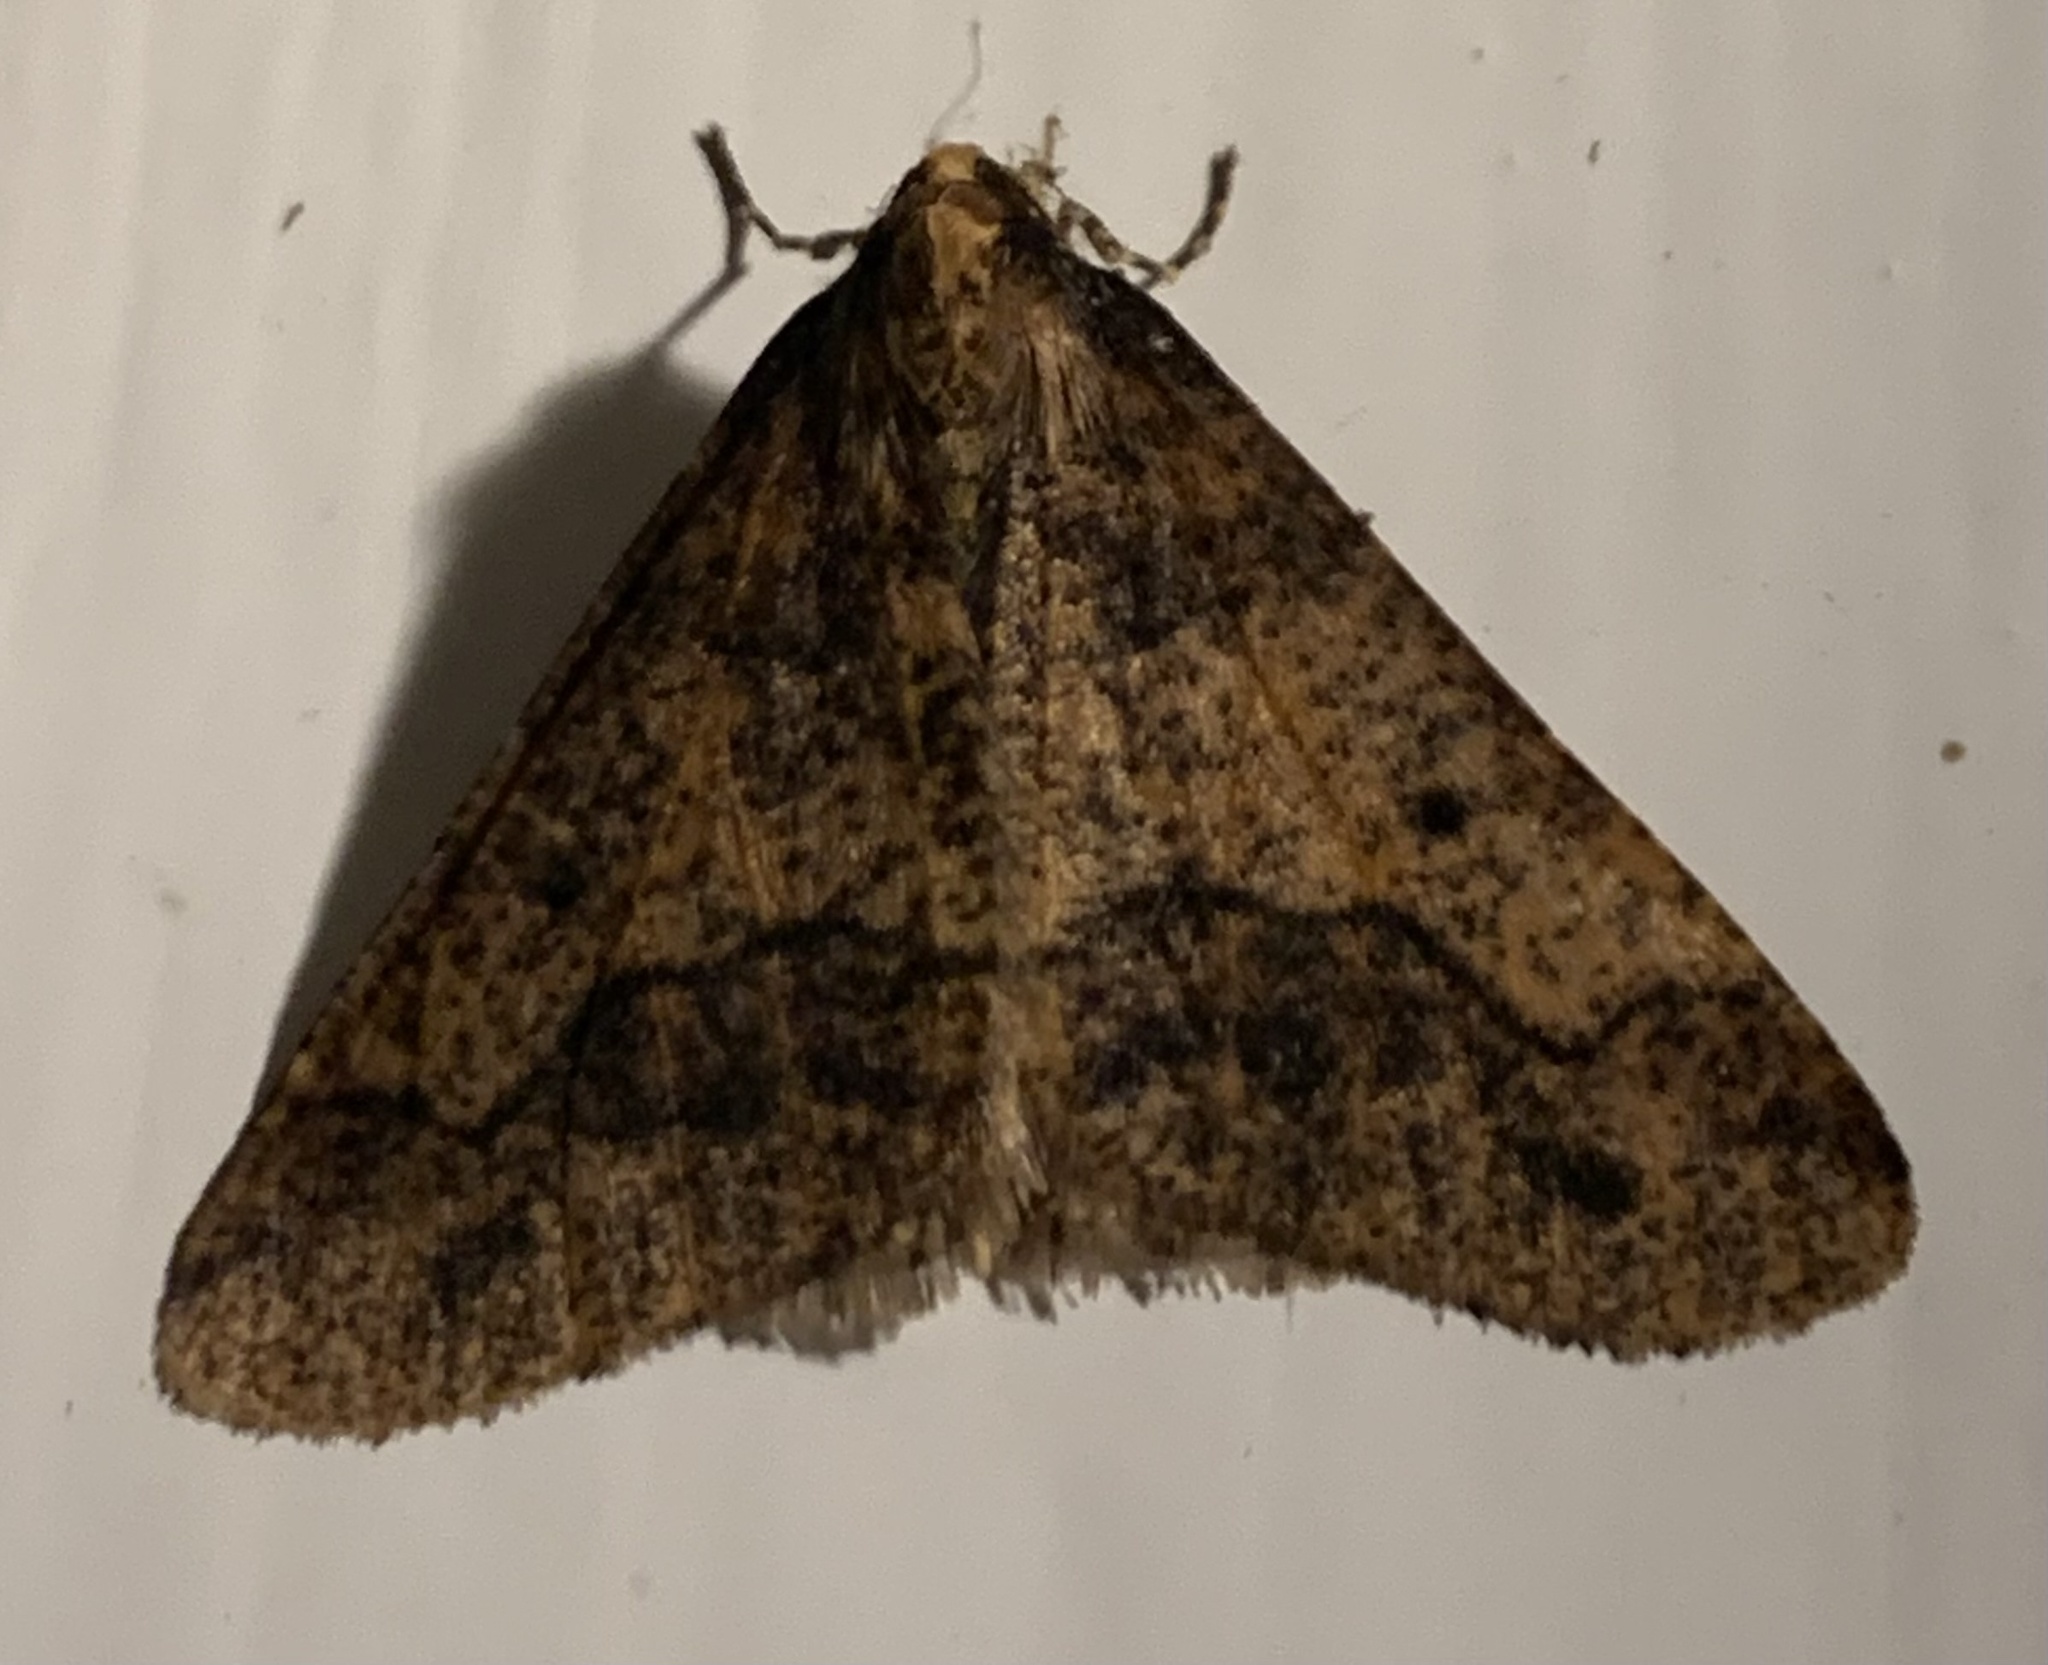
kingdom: Animalia
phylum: Arthropoda
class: Insecta
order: Lepidoptera
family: Geometridae
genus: Erannis
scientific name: Erannis defoliaria
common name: Mottled umber
